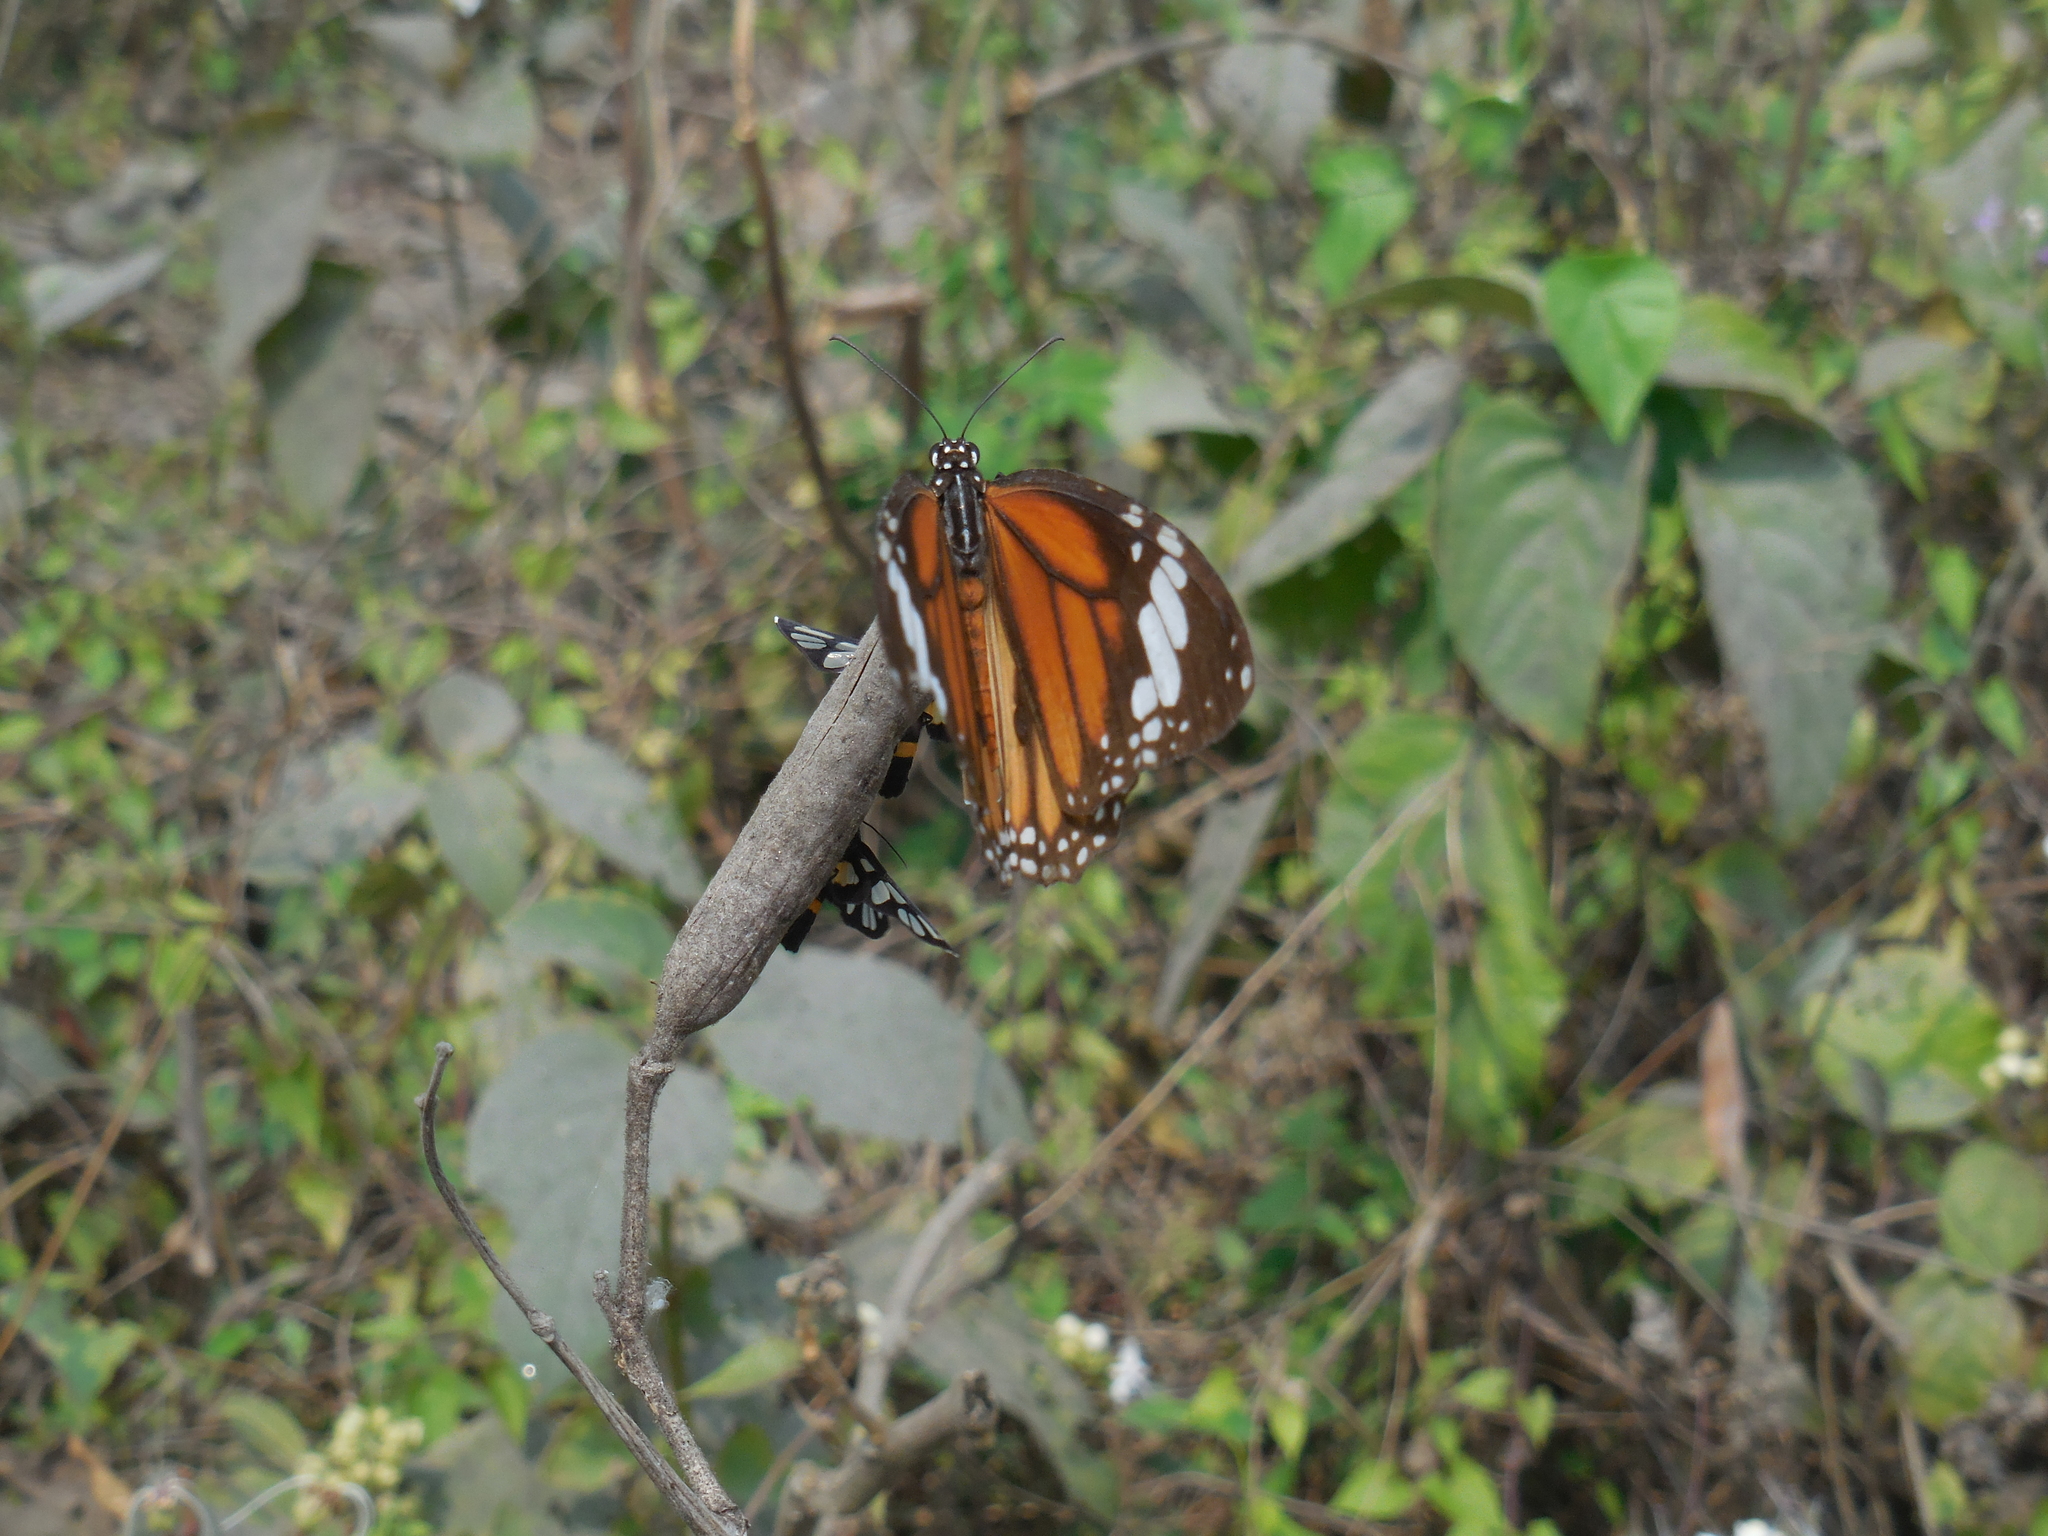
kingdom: Animalia
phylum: Arthropoda
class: Insecta
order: Lepidoptera
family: Nymphalidae
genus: Danaus
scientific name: Danaus genutia
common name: Common tiger butterfly
